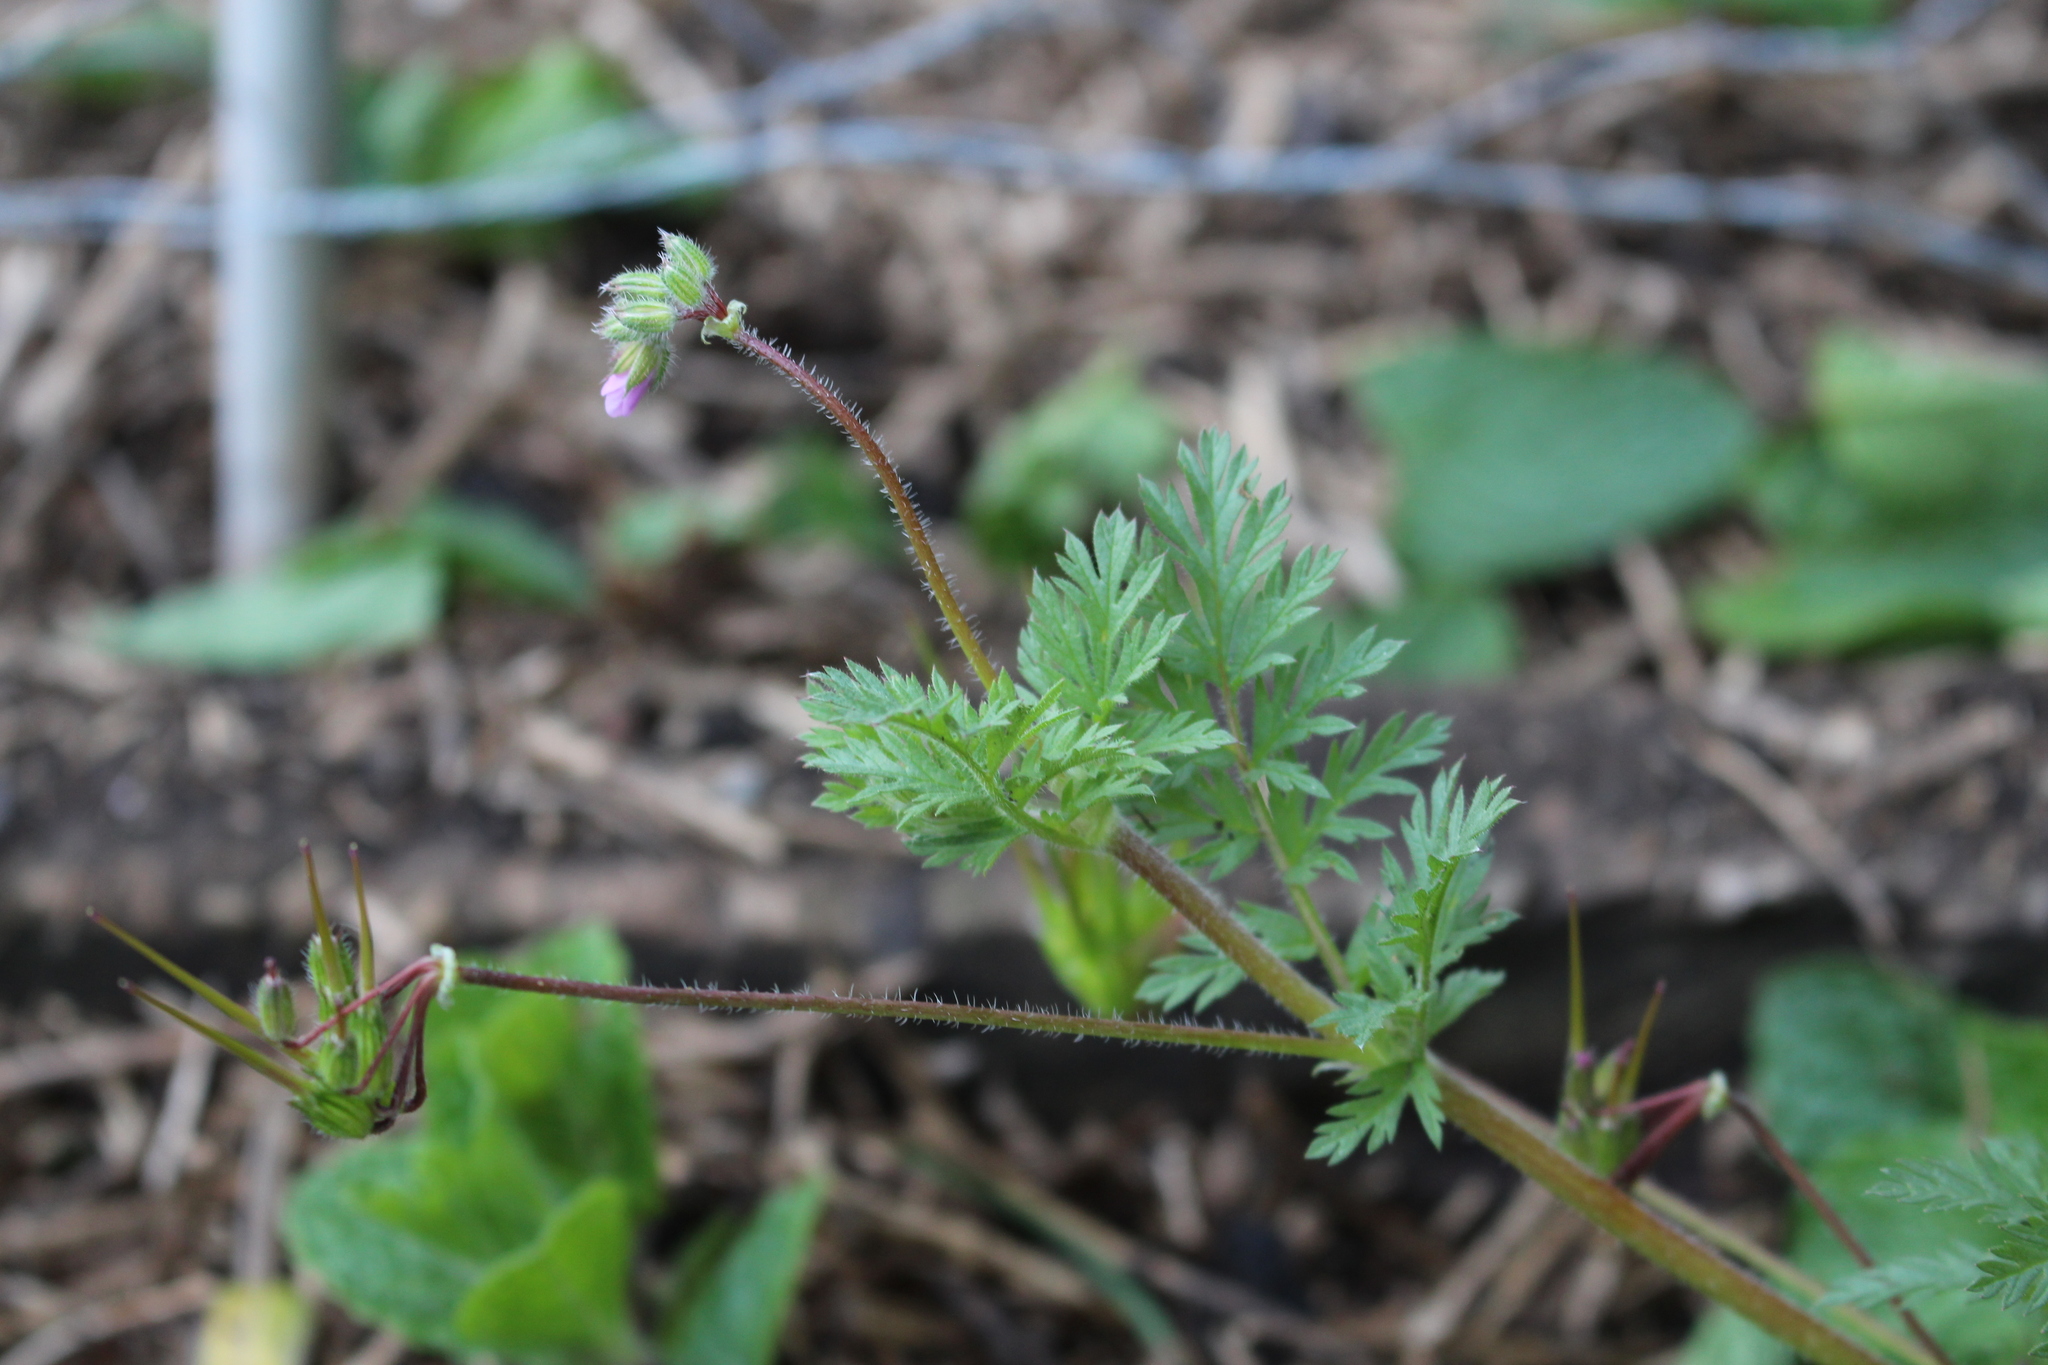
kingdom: Plantae
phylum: Tracheophyta
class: Magnoliopsida
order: Geraniales
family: Geraniaceae
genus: Erodium
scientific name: Erodium cicutarium
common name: Common stork's-bill
